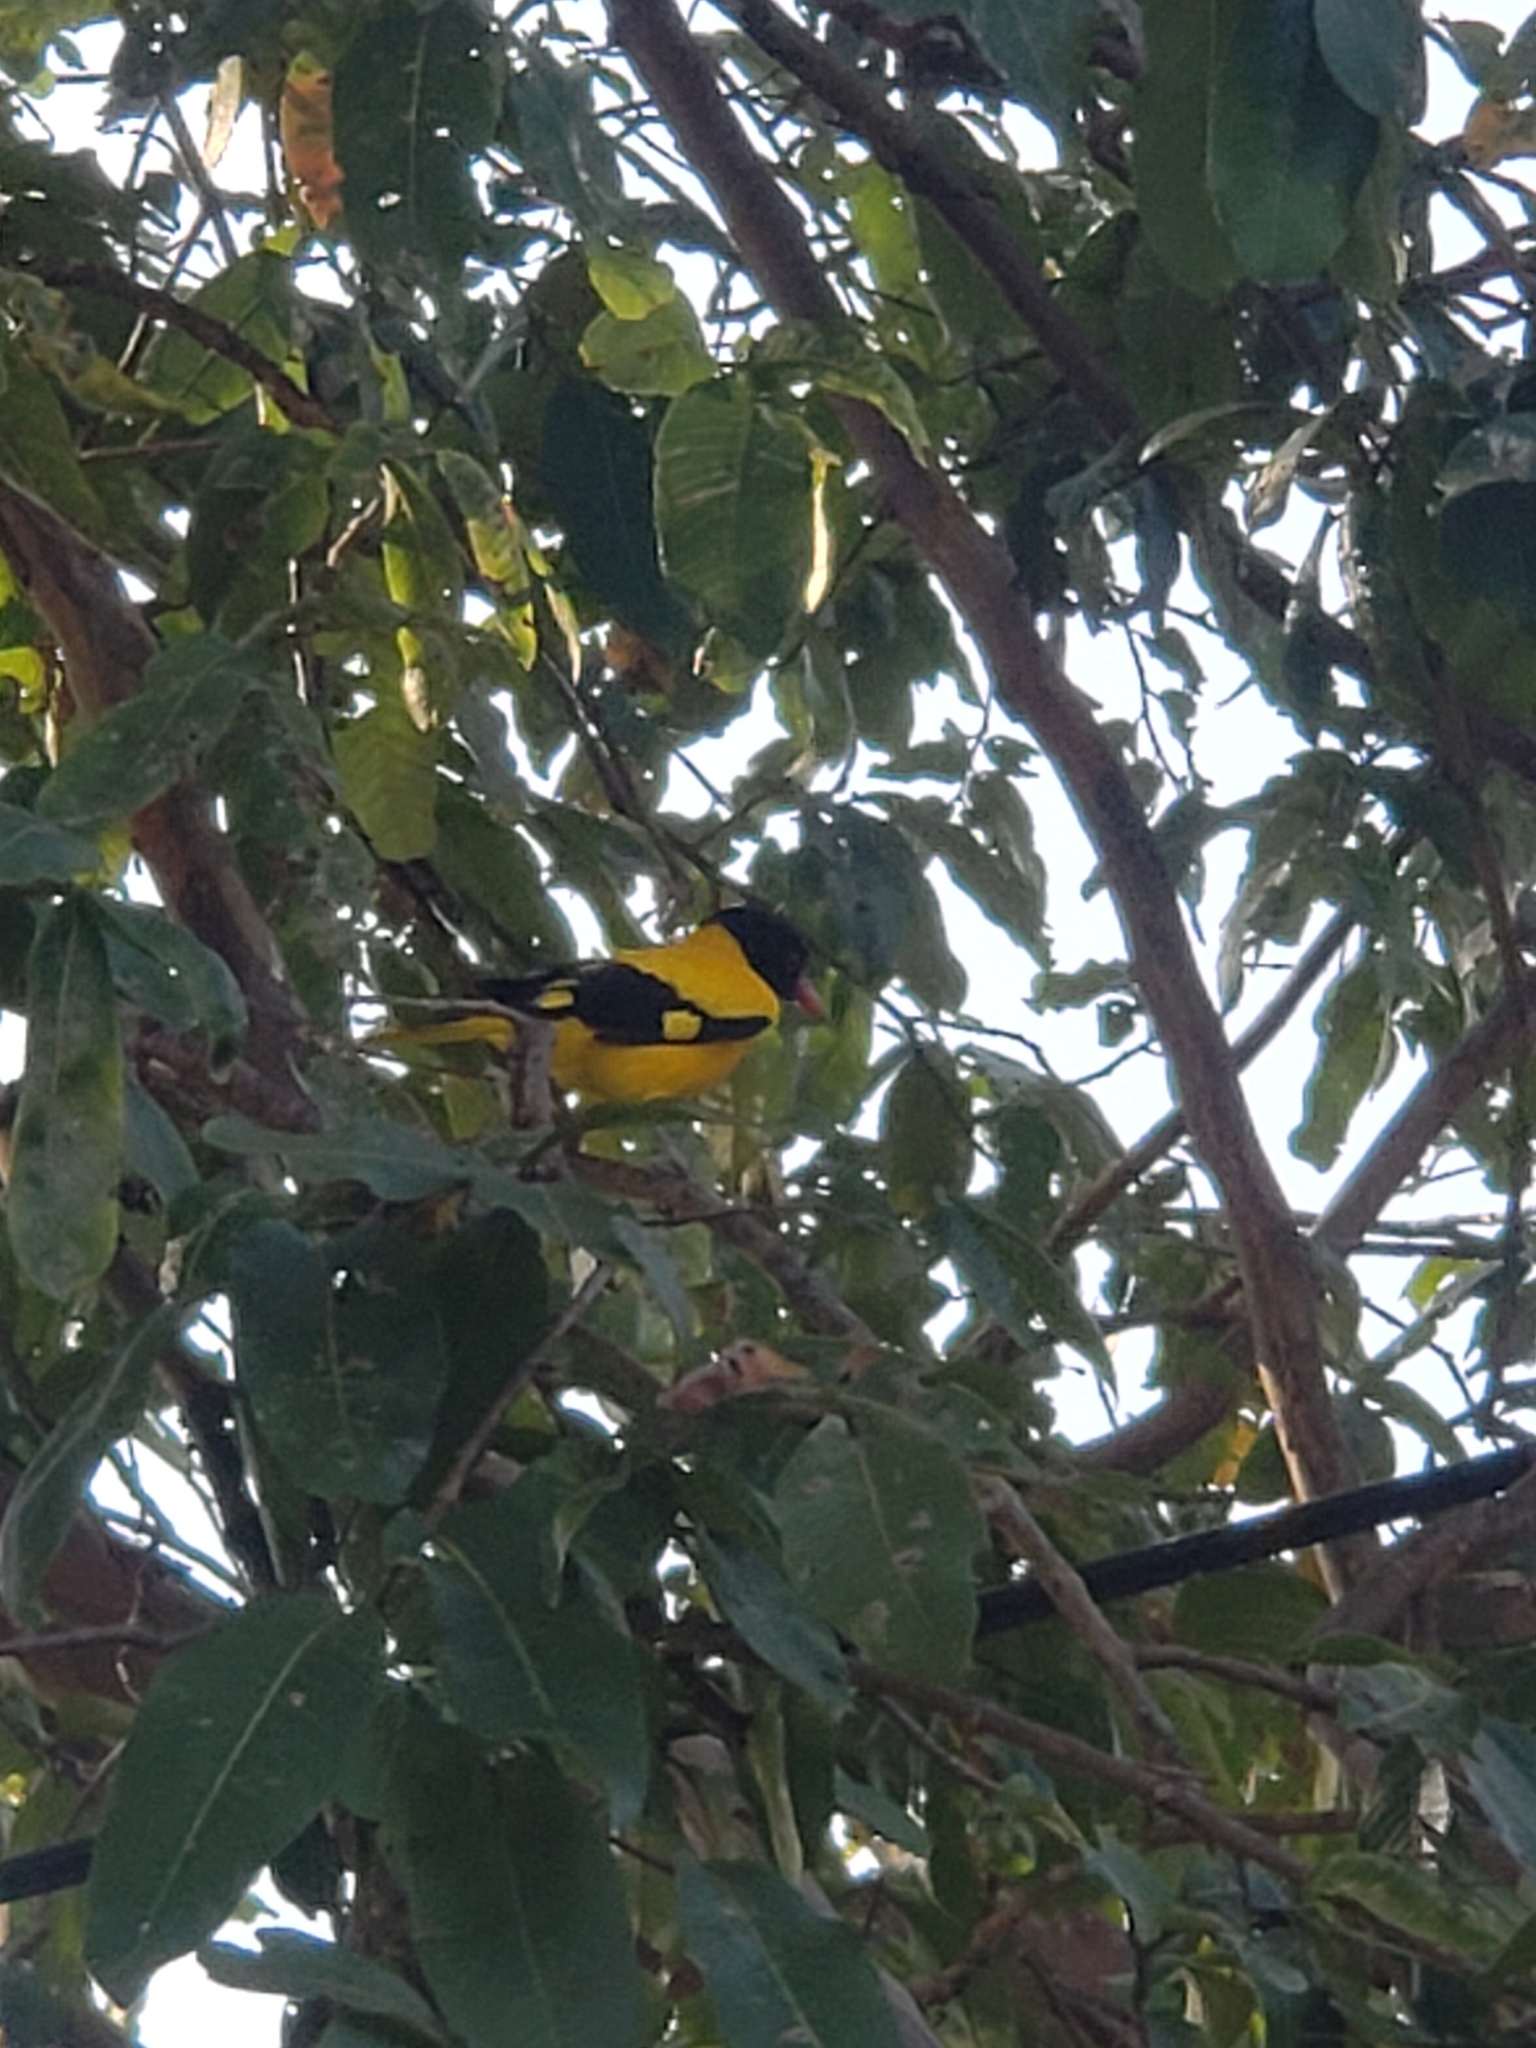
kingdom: Animalia
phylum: Chordata
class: Aves
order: Passeriformes
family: Oriolidae
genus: Oriolus
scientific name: Oriolus xanthornus
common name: Black-hooded oriole
